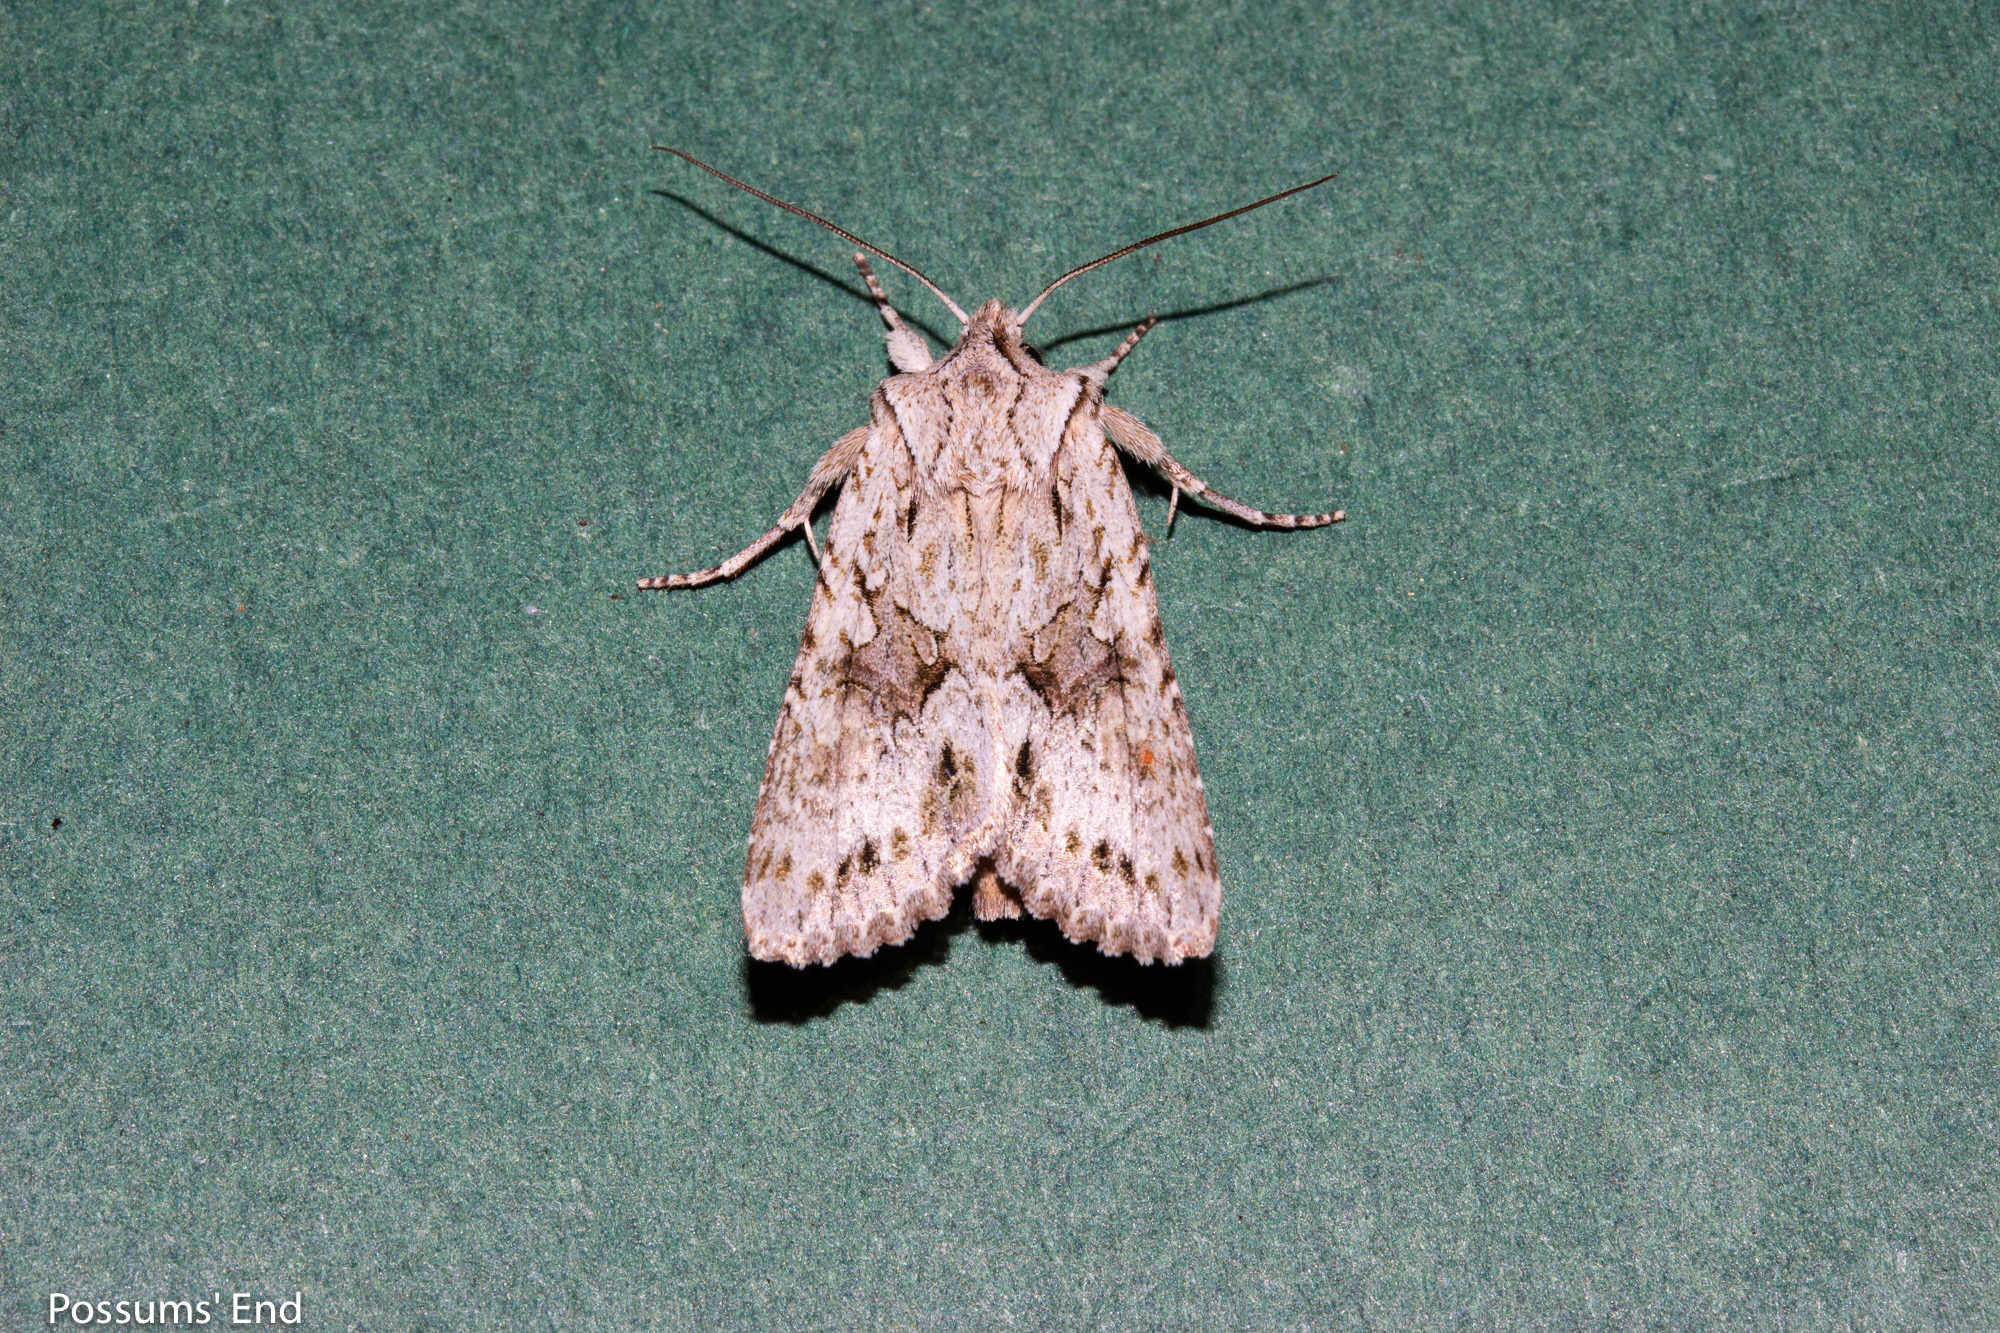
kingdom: Animalia
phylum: Arthropoda
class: Insecta
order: Lepidoptera
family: Noctuidae
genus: Ichneutica
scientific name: Ichneutica
